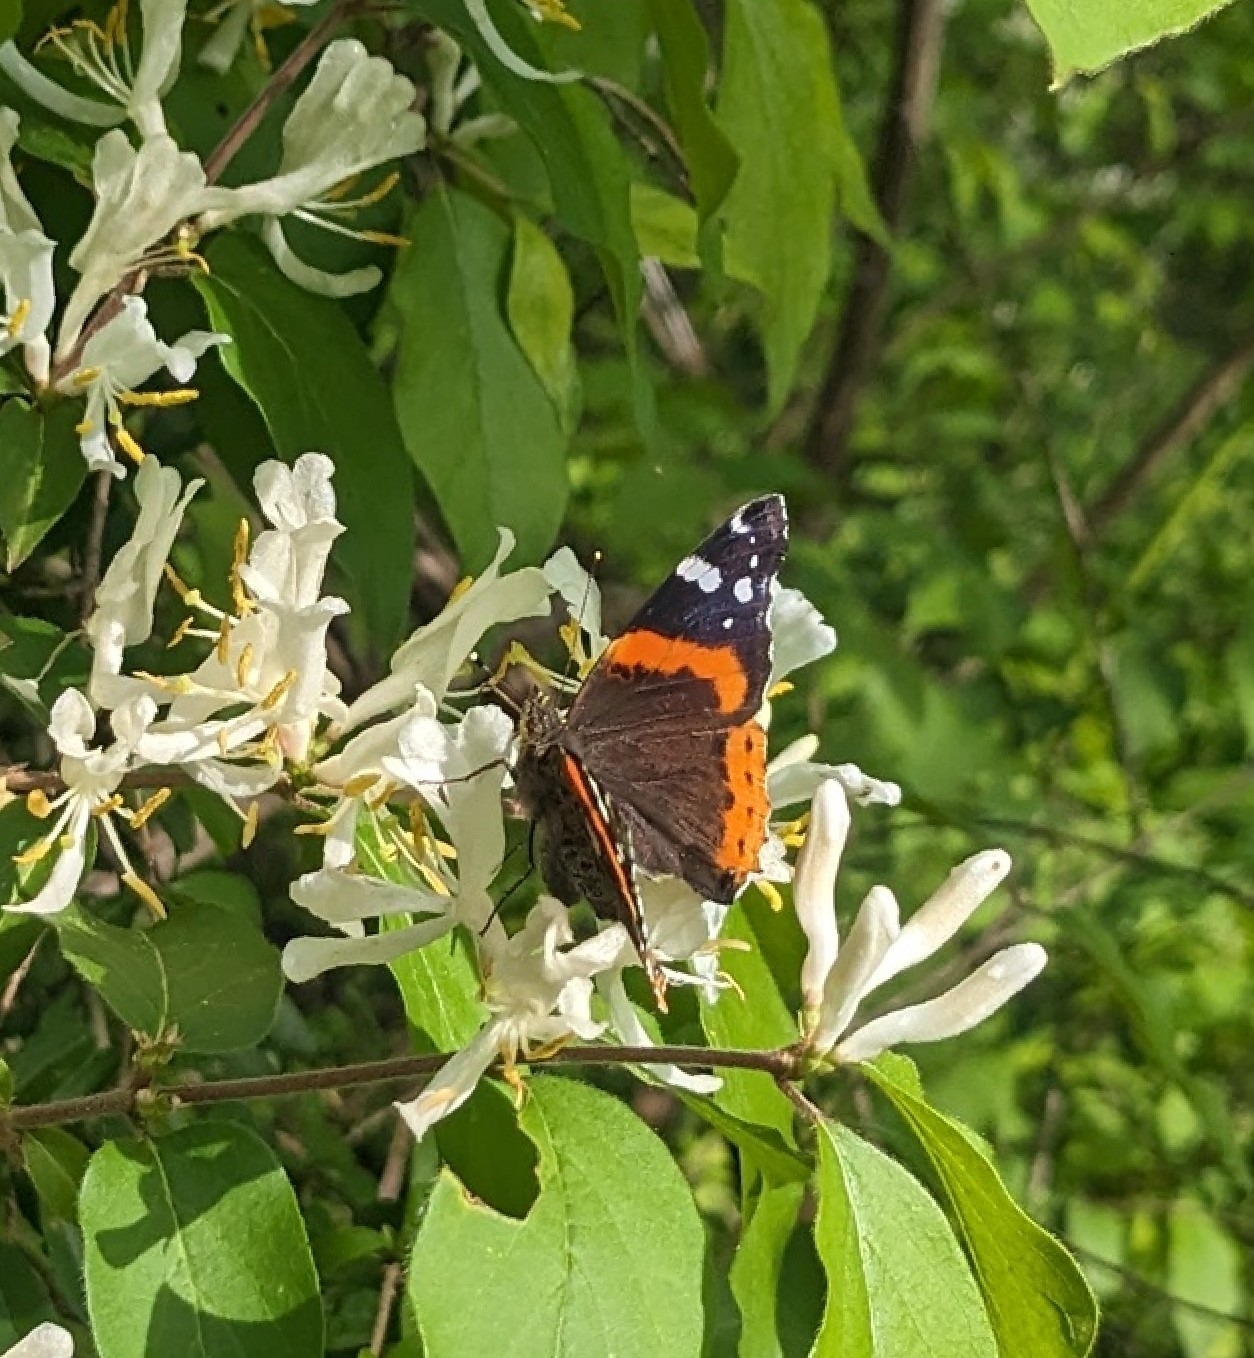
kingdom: Animalia
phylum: Arthropoda
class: Insecta
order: Lepidoptera
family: Nymphalidae
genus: Vanessa
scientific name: Vanessa atalanta
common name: Red admiral
